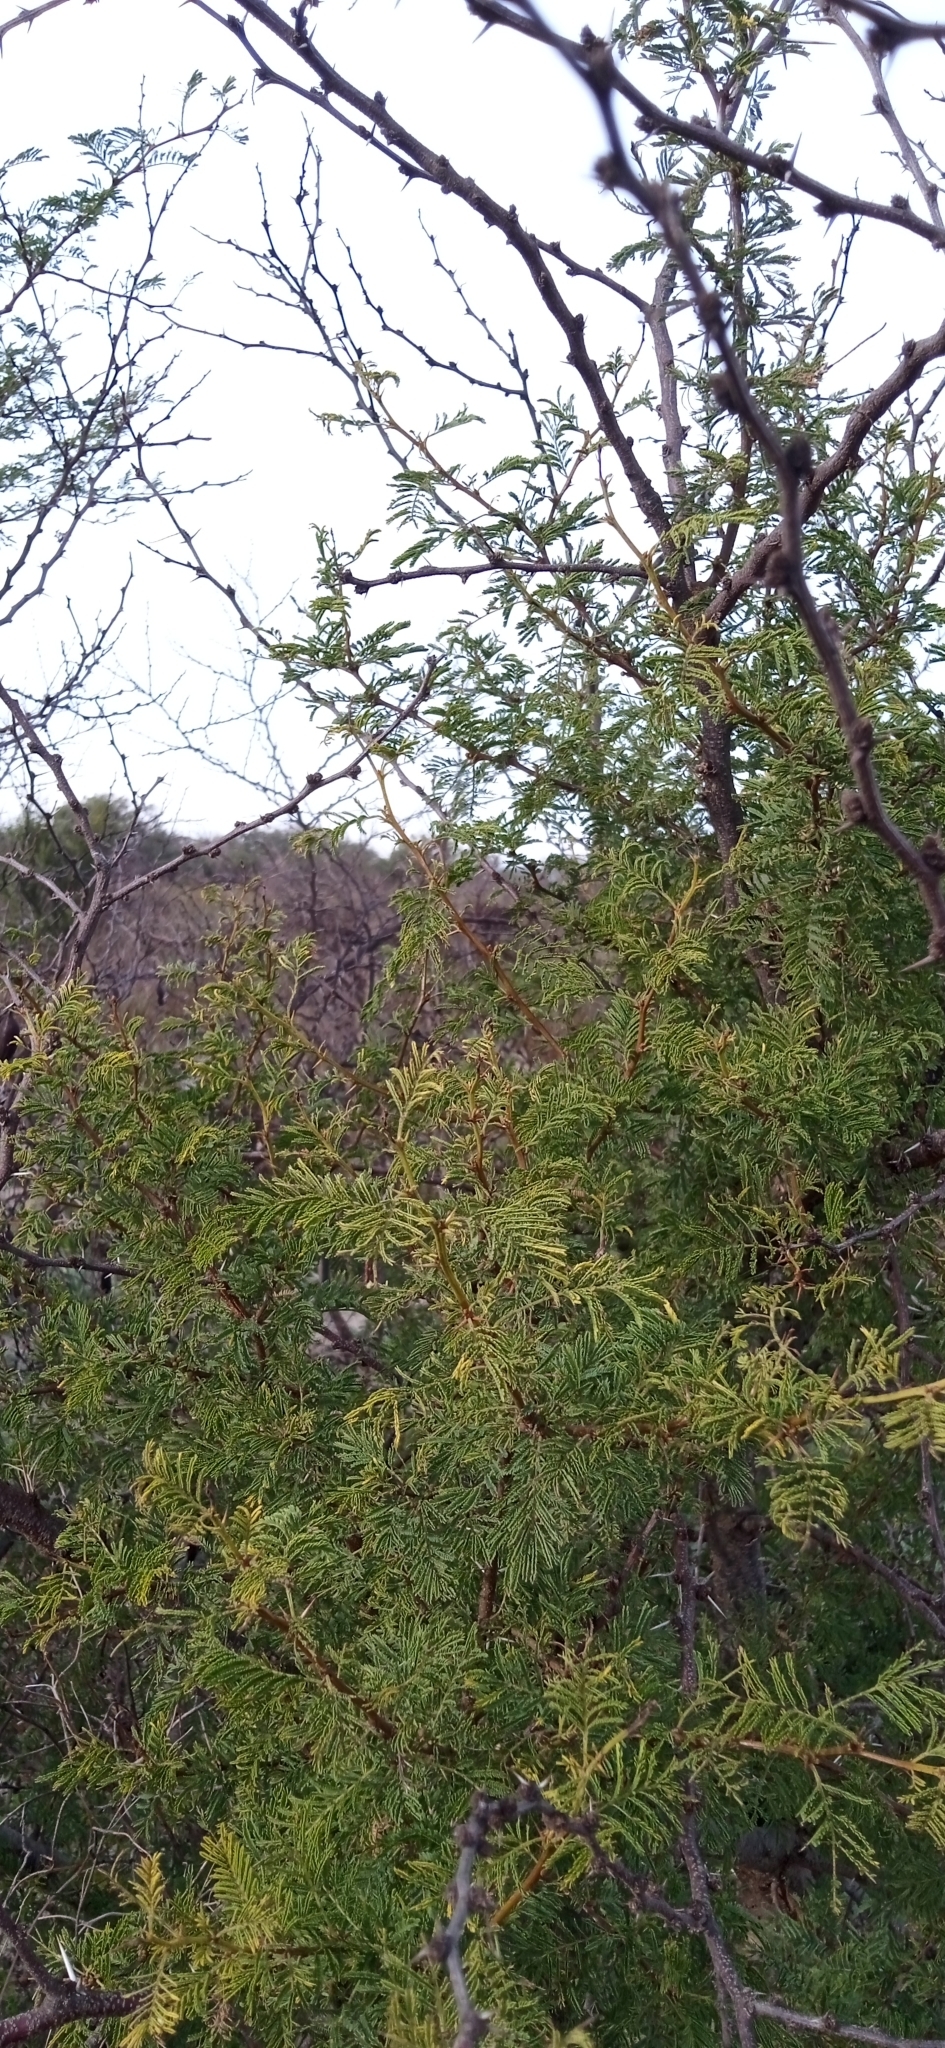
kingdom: Plantae
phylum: Tracheophyta
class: Magnoliopsida
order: Fabales
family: Fabaceae
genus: Vachellia
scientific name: Vachellia caven
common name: Roman cassie
